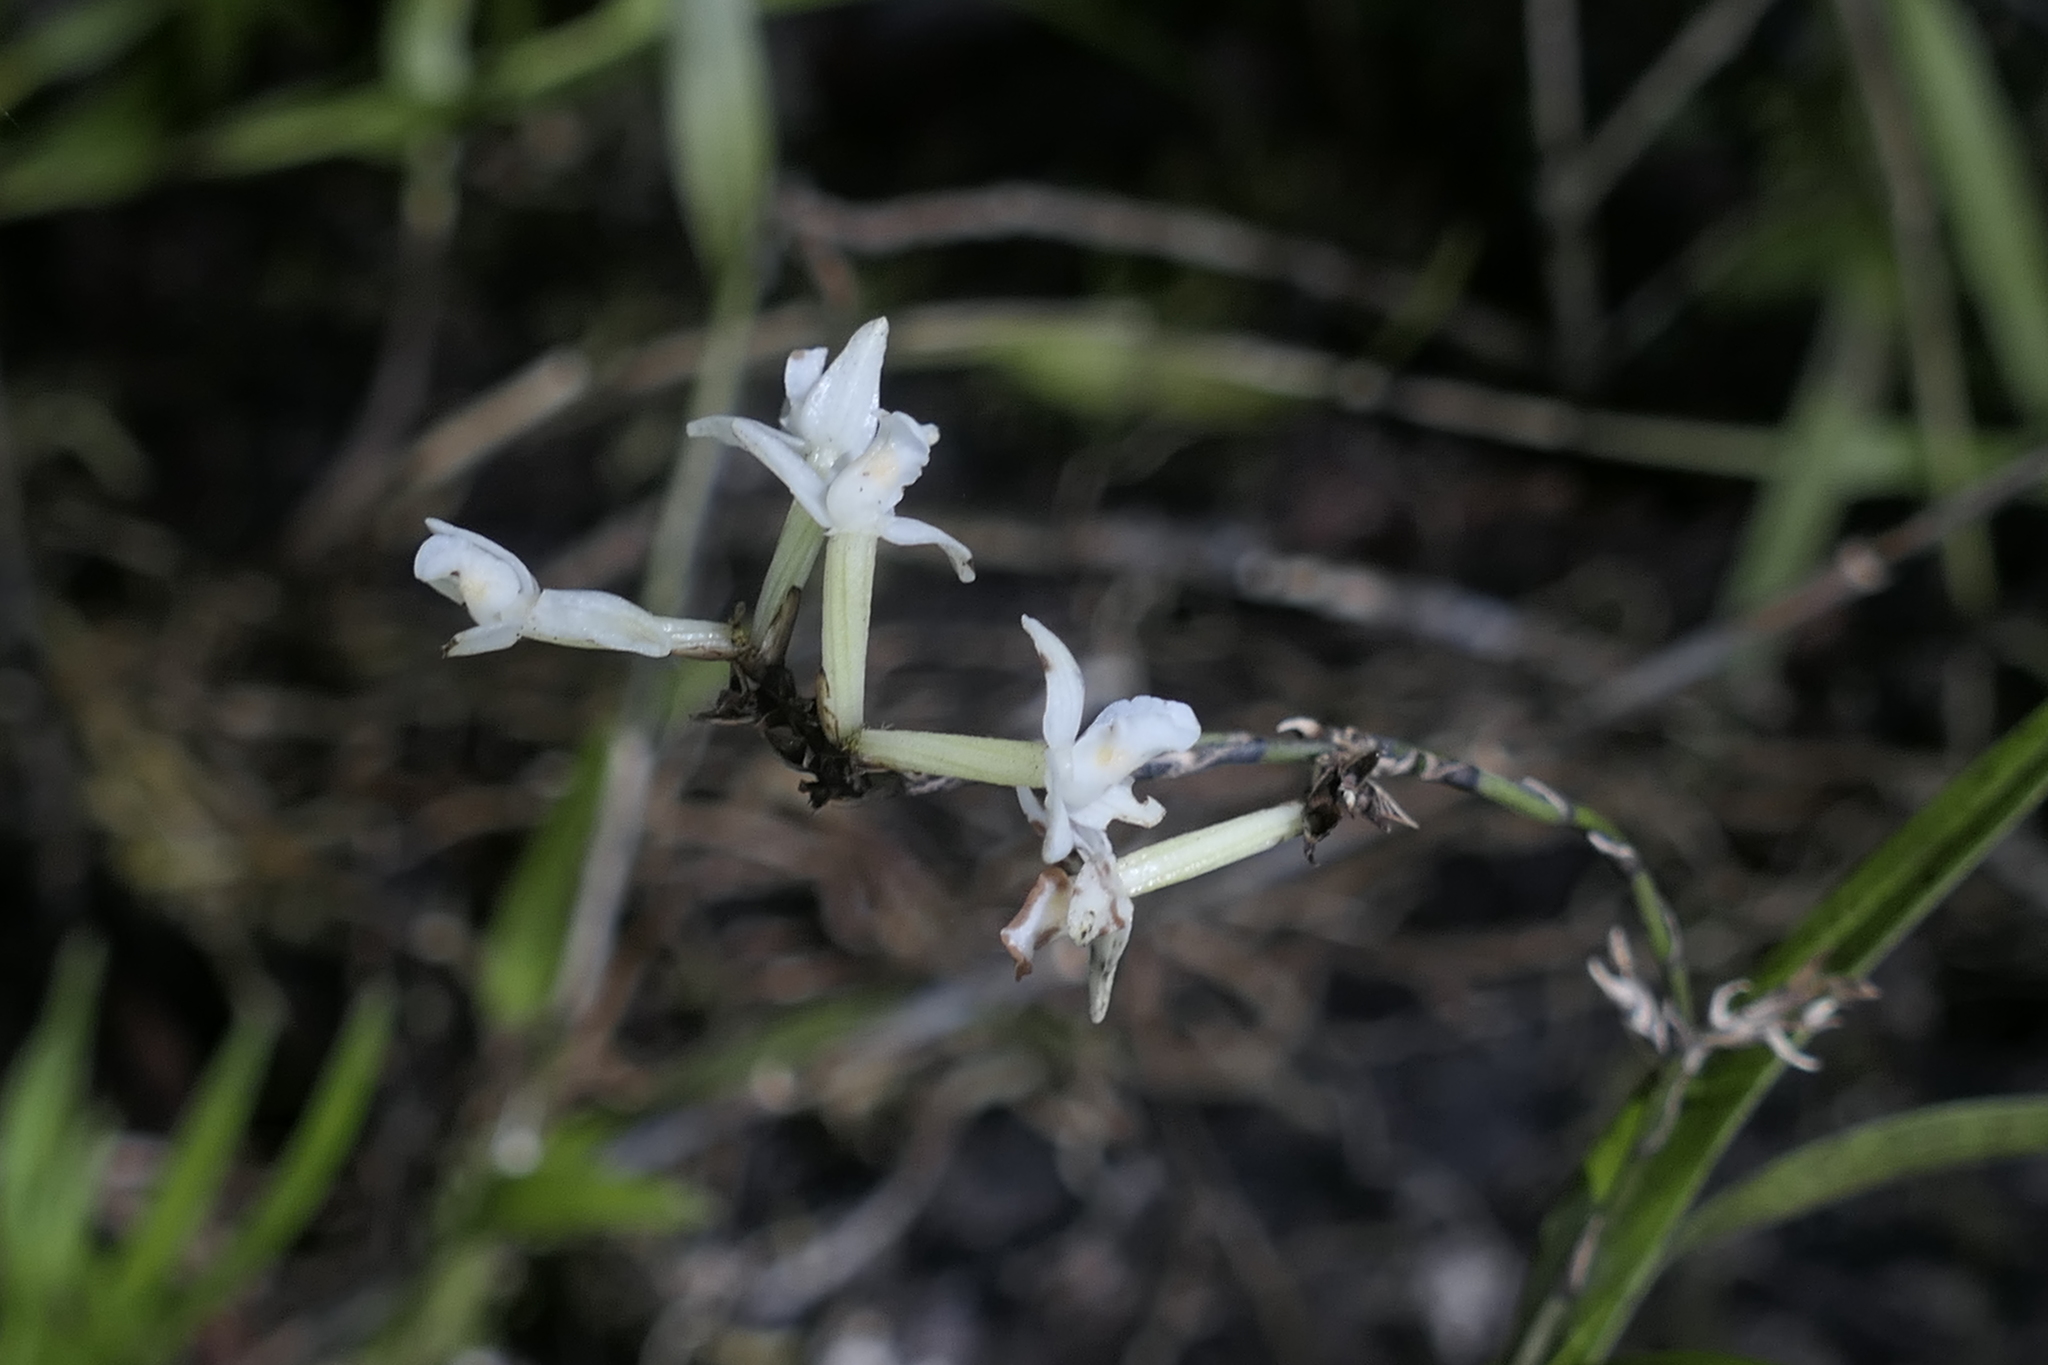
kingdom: Plantae
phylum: Tracheophyta
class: Liliopsida
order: Asparagales
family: Orchidaceae
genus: Earina
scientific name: Earina autumnalis
